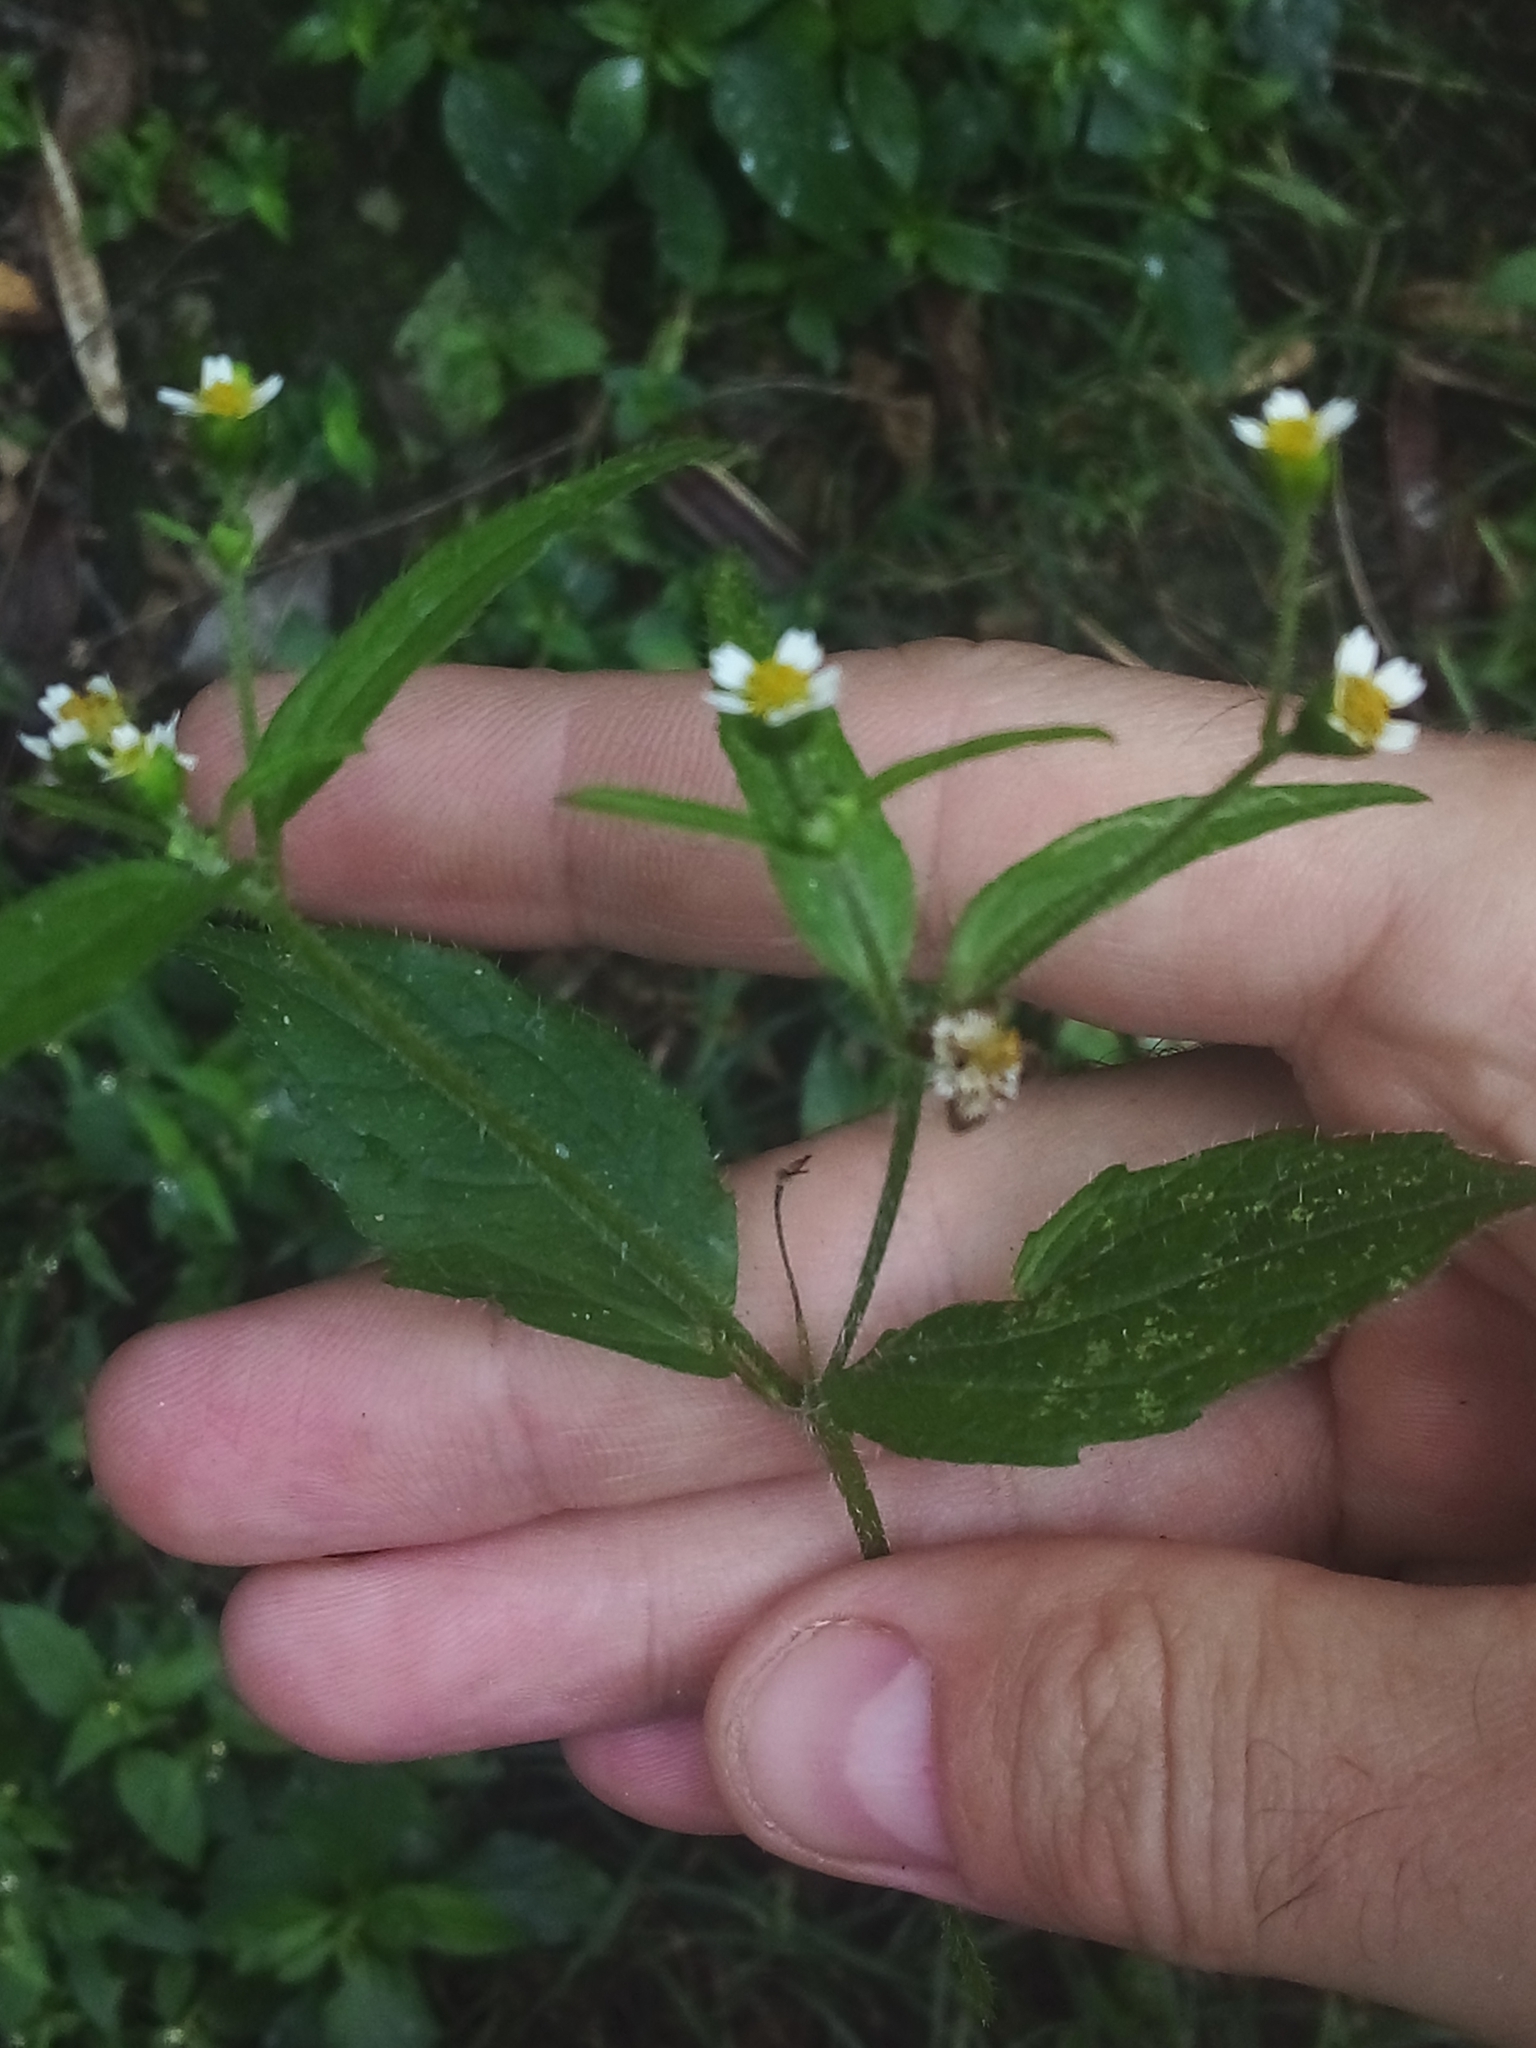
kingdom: Plantae
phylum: Tracheophyta
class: Magnoliopsida
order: Asterales
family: Asteraceae
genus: Galinsoga
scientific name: Galinsoga quadriradiata
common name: Shaggy soldier
